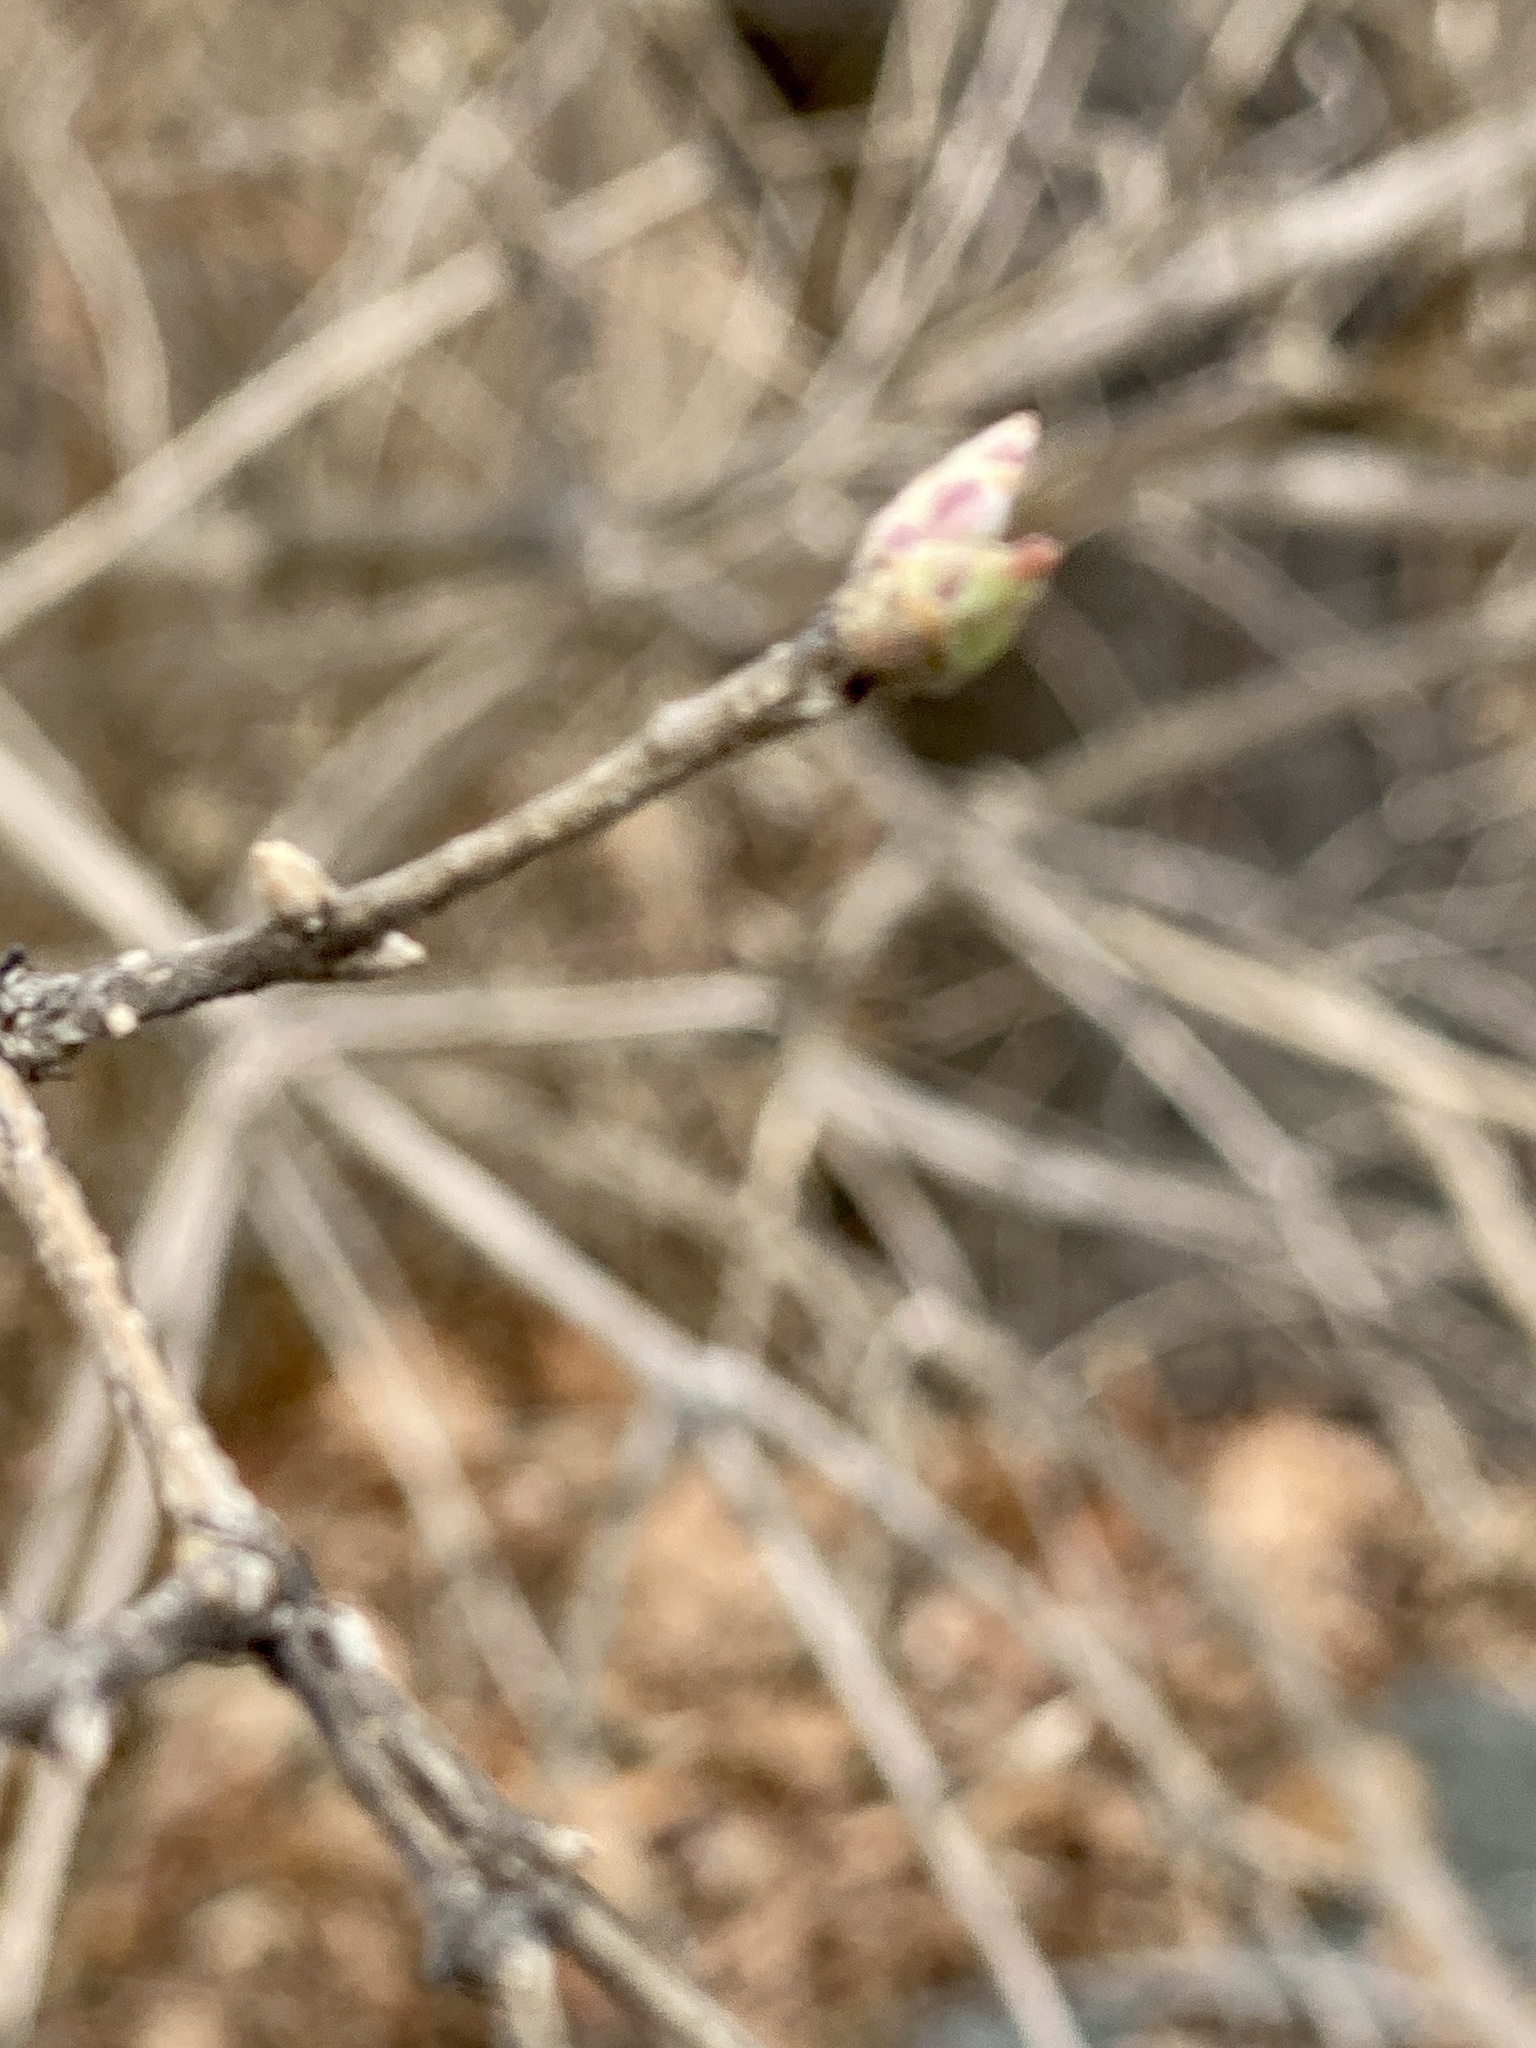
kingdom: Plantae
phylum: Tracheophyta
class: Magnoliopsida
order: Dipsacales
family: Caprifoliaceae
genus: Lonicera
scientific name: Lonicera maackii
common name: Amur honeysuckle
